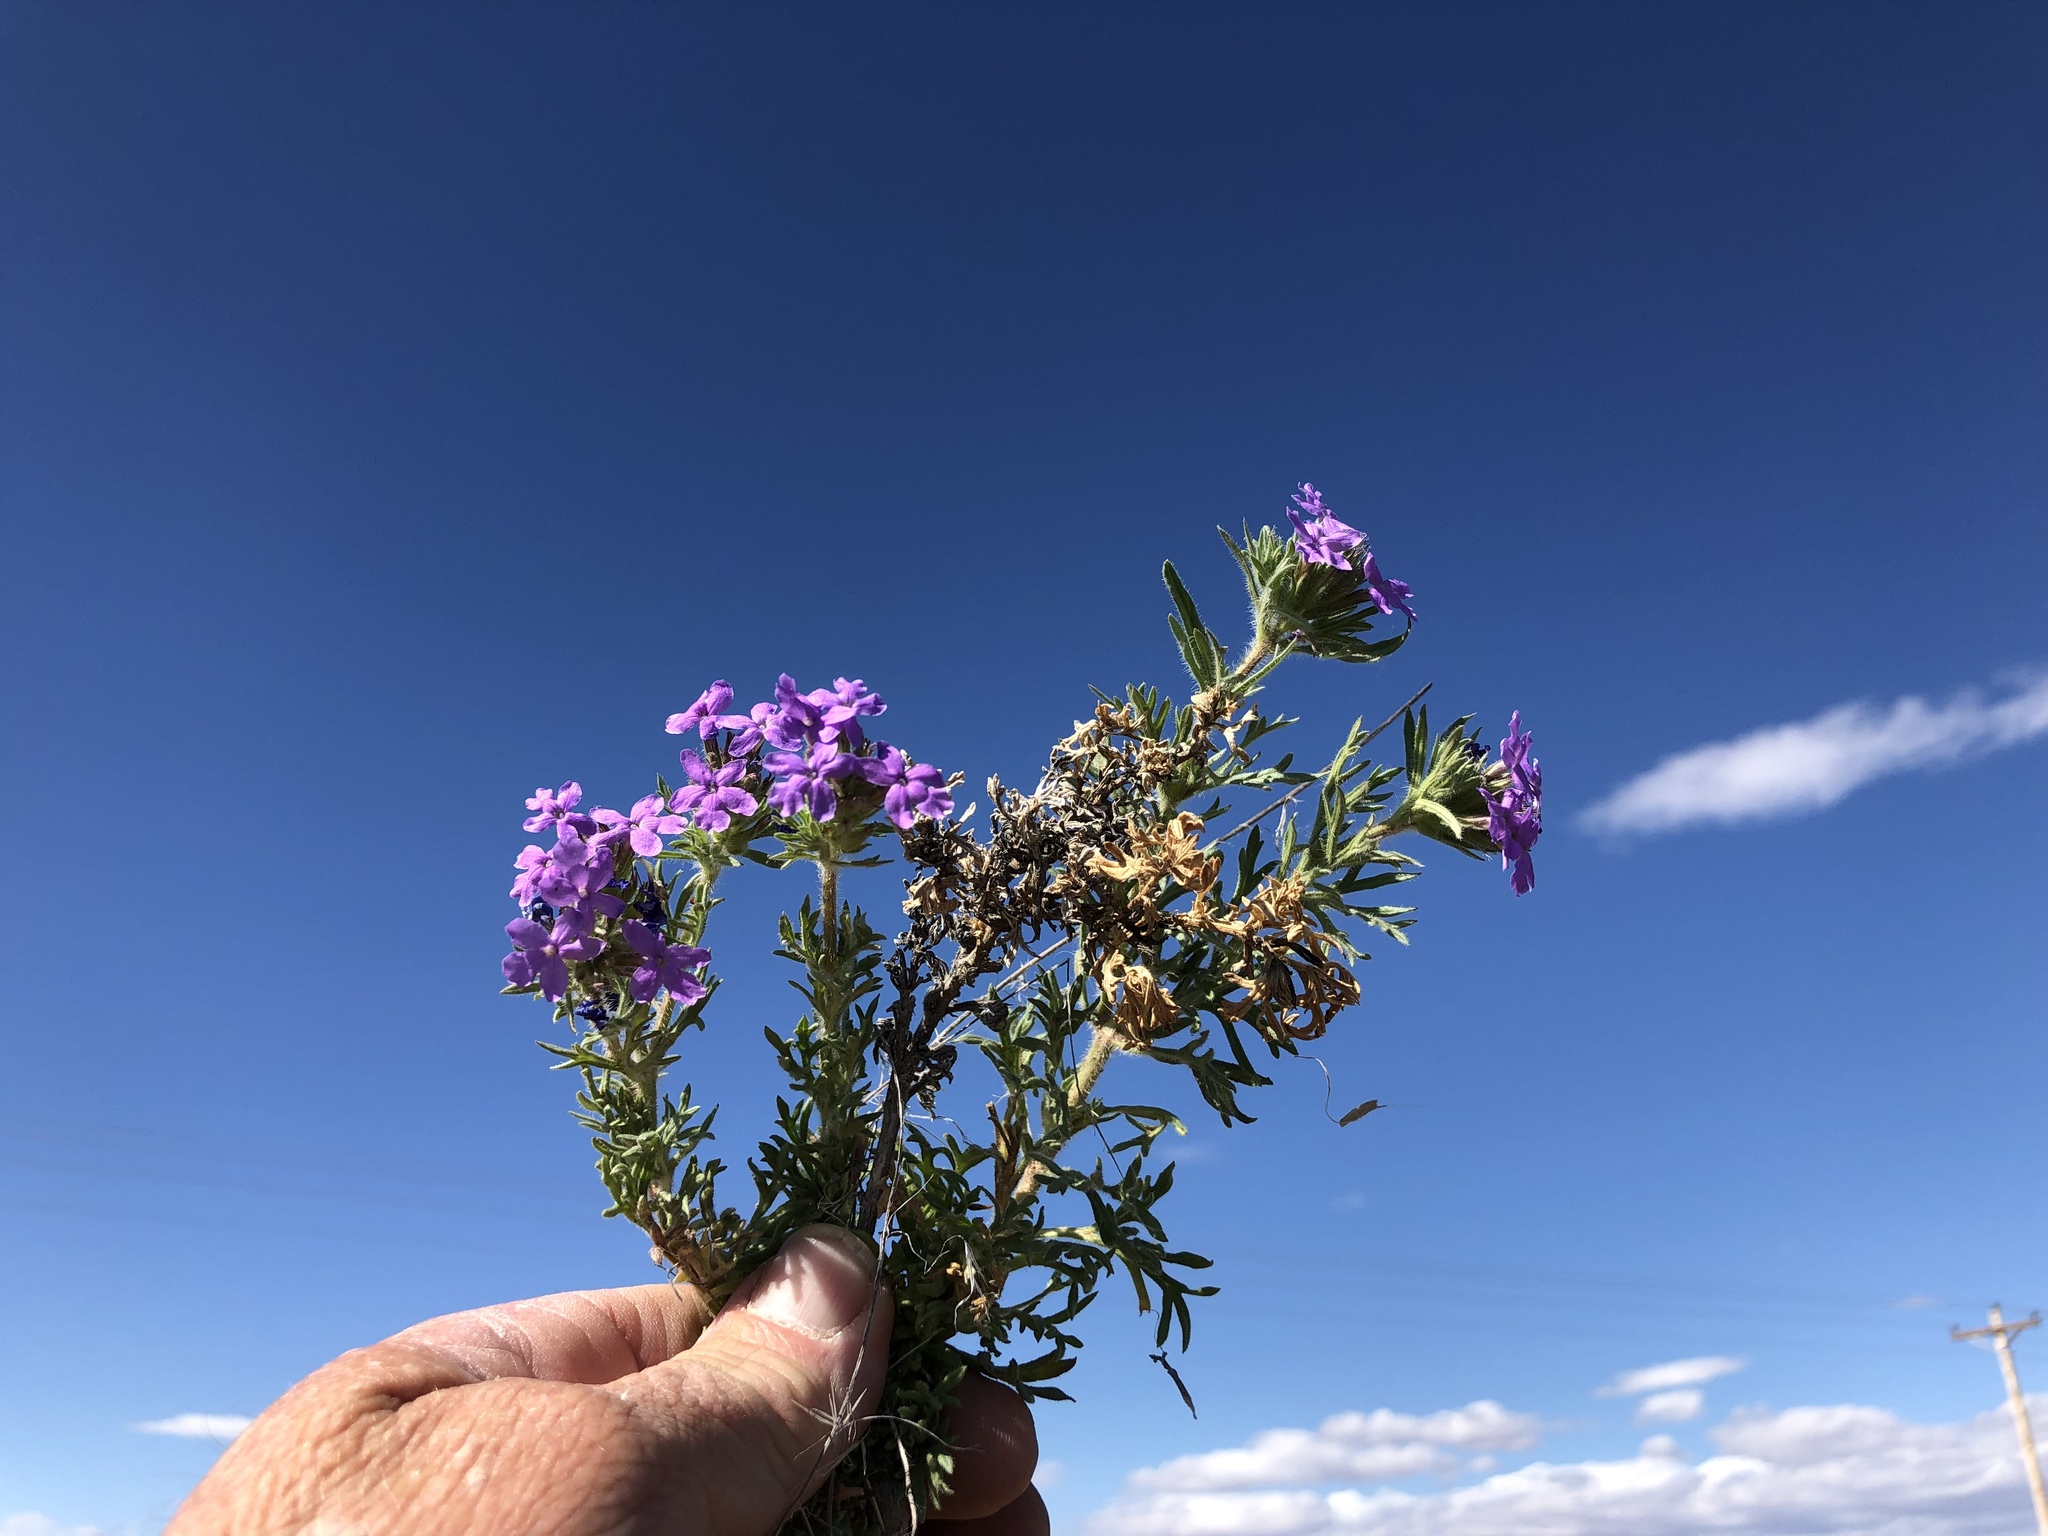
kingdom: Plantae
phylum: Tracheophyta
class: Magnoliopsida
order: Lamiales
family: Verbenaceae
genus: Verbena
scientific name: Verbena bipinnatifida
